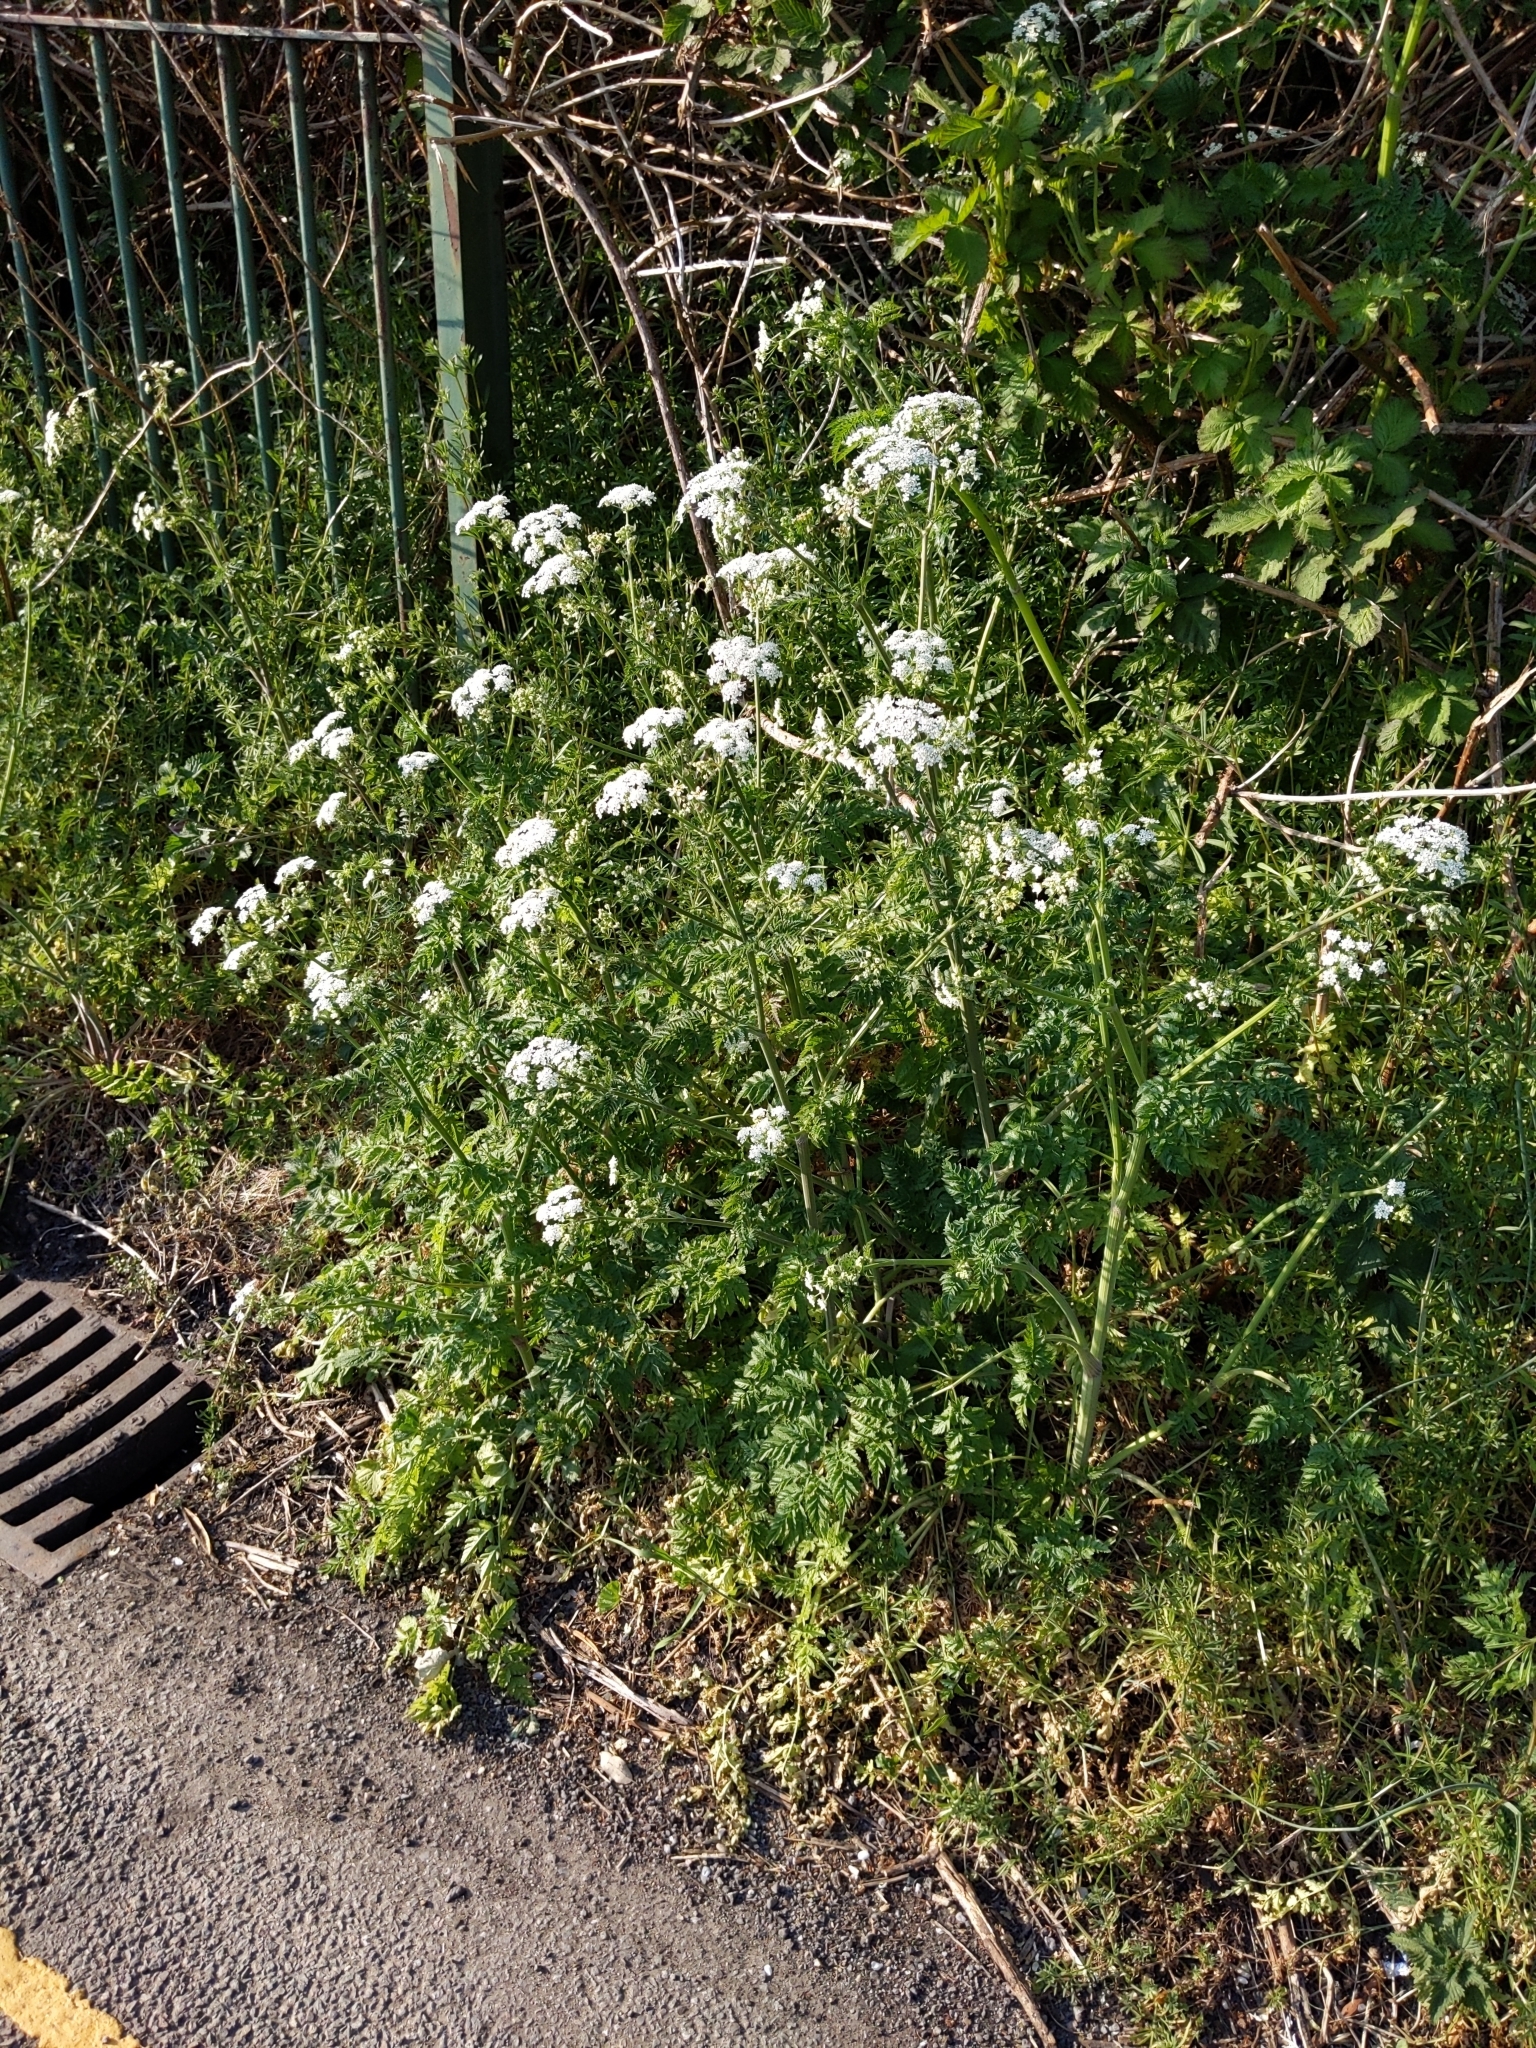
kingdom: Plantae
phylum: Tracheophyta
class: Magnoliopsida
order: Apiales
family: Apiaceae
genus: Anthriscus
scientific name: Anthriscus sylvestris
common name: Cow parsley
